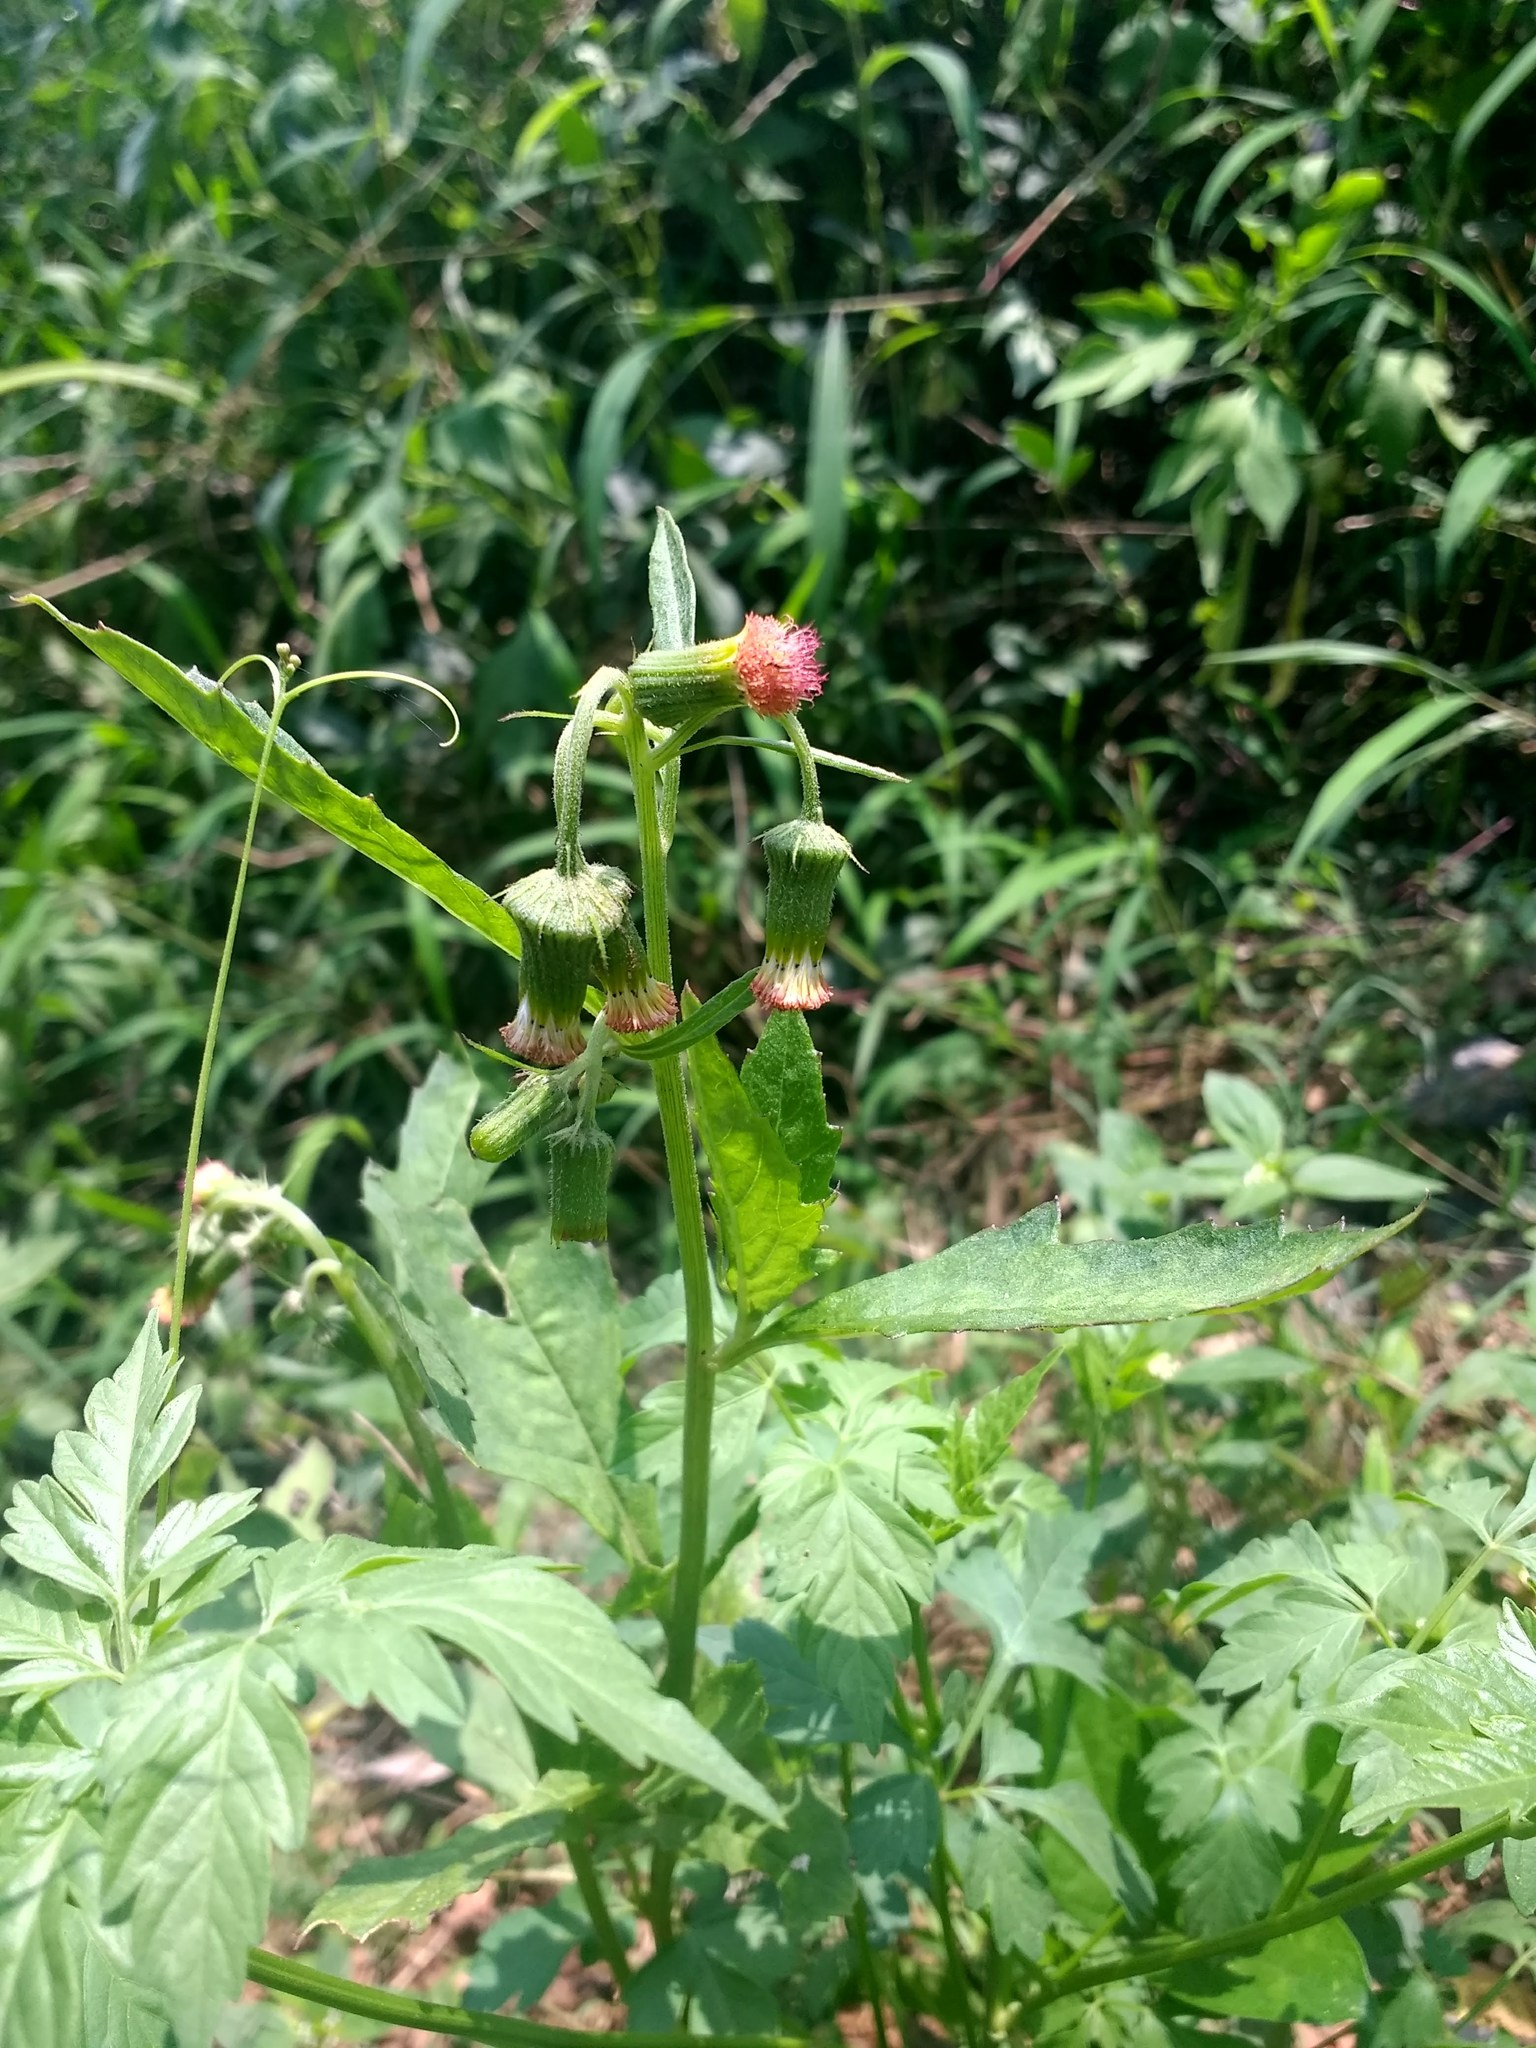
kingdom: Plantae
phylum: Tracheophyta
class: Magnoliopsida
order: Asterales
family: Asteraceae
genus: Crassocephalum
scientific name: Crassocephalum crepidioides
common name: Redflower ragleaf
